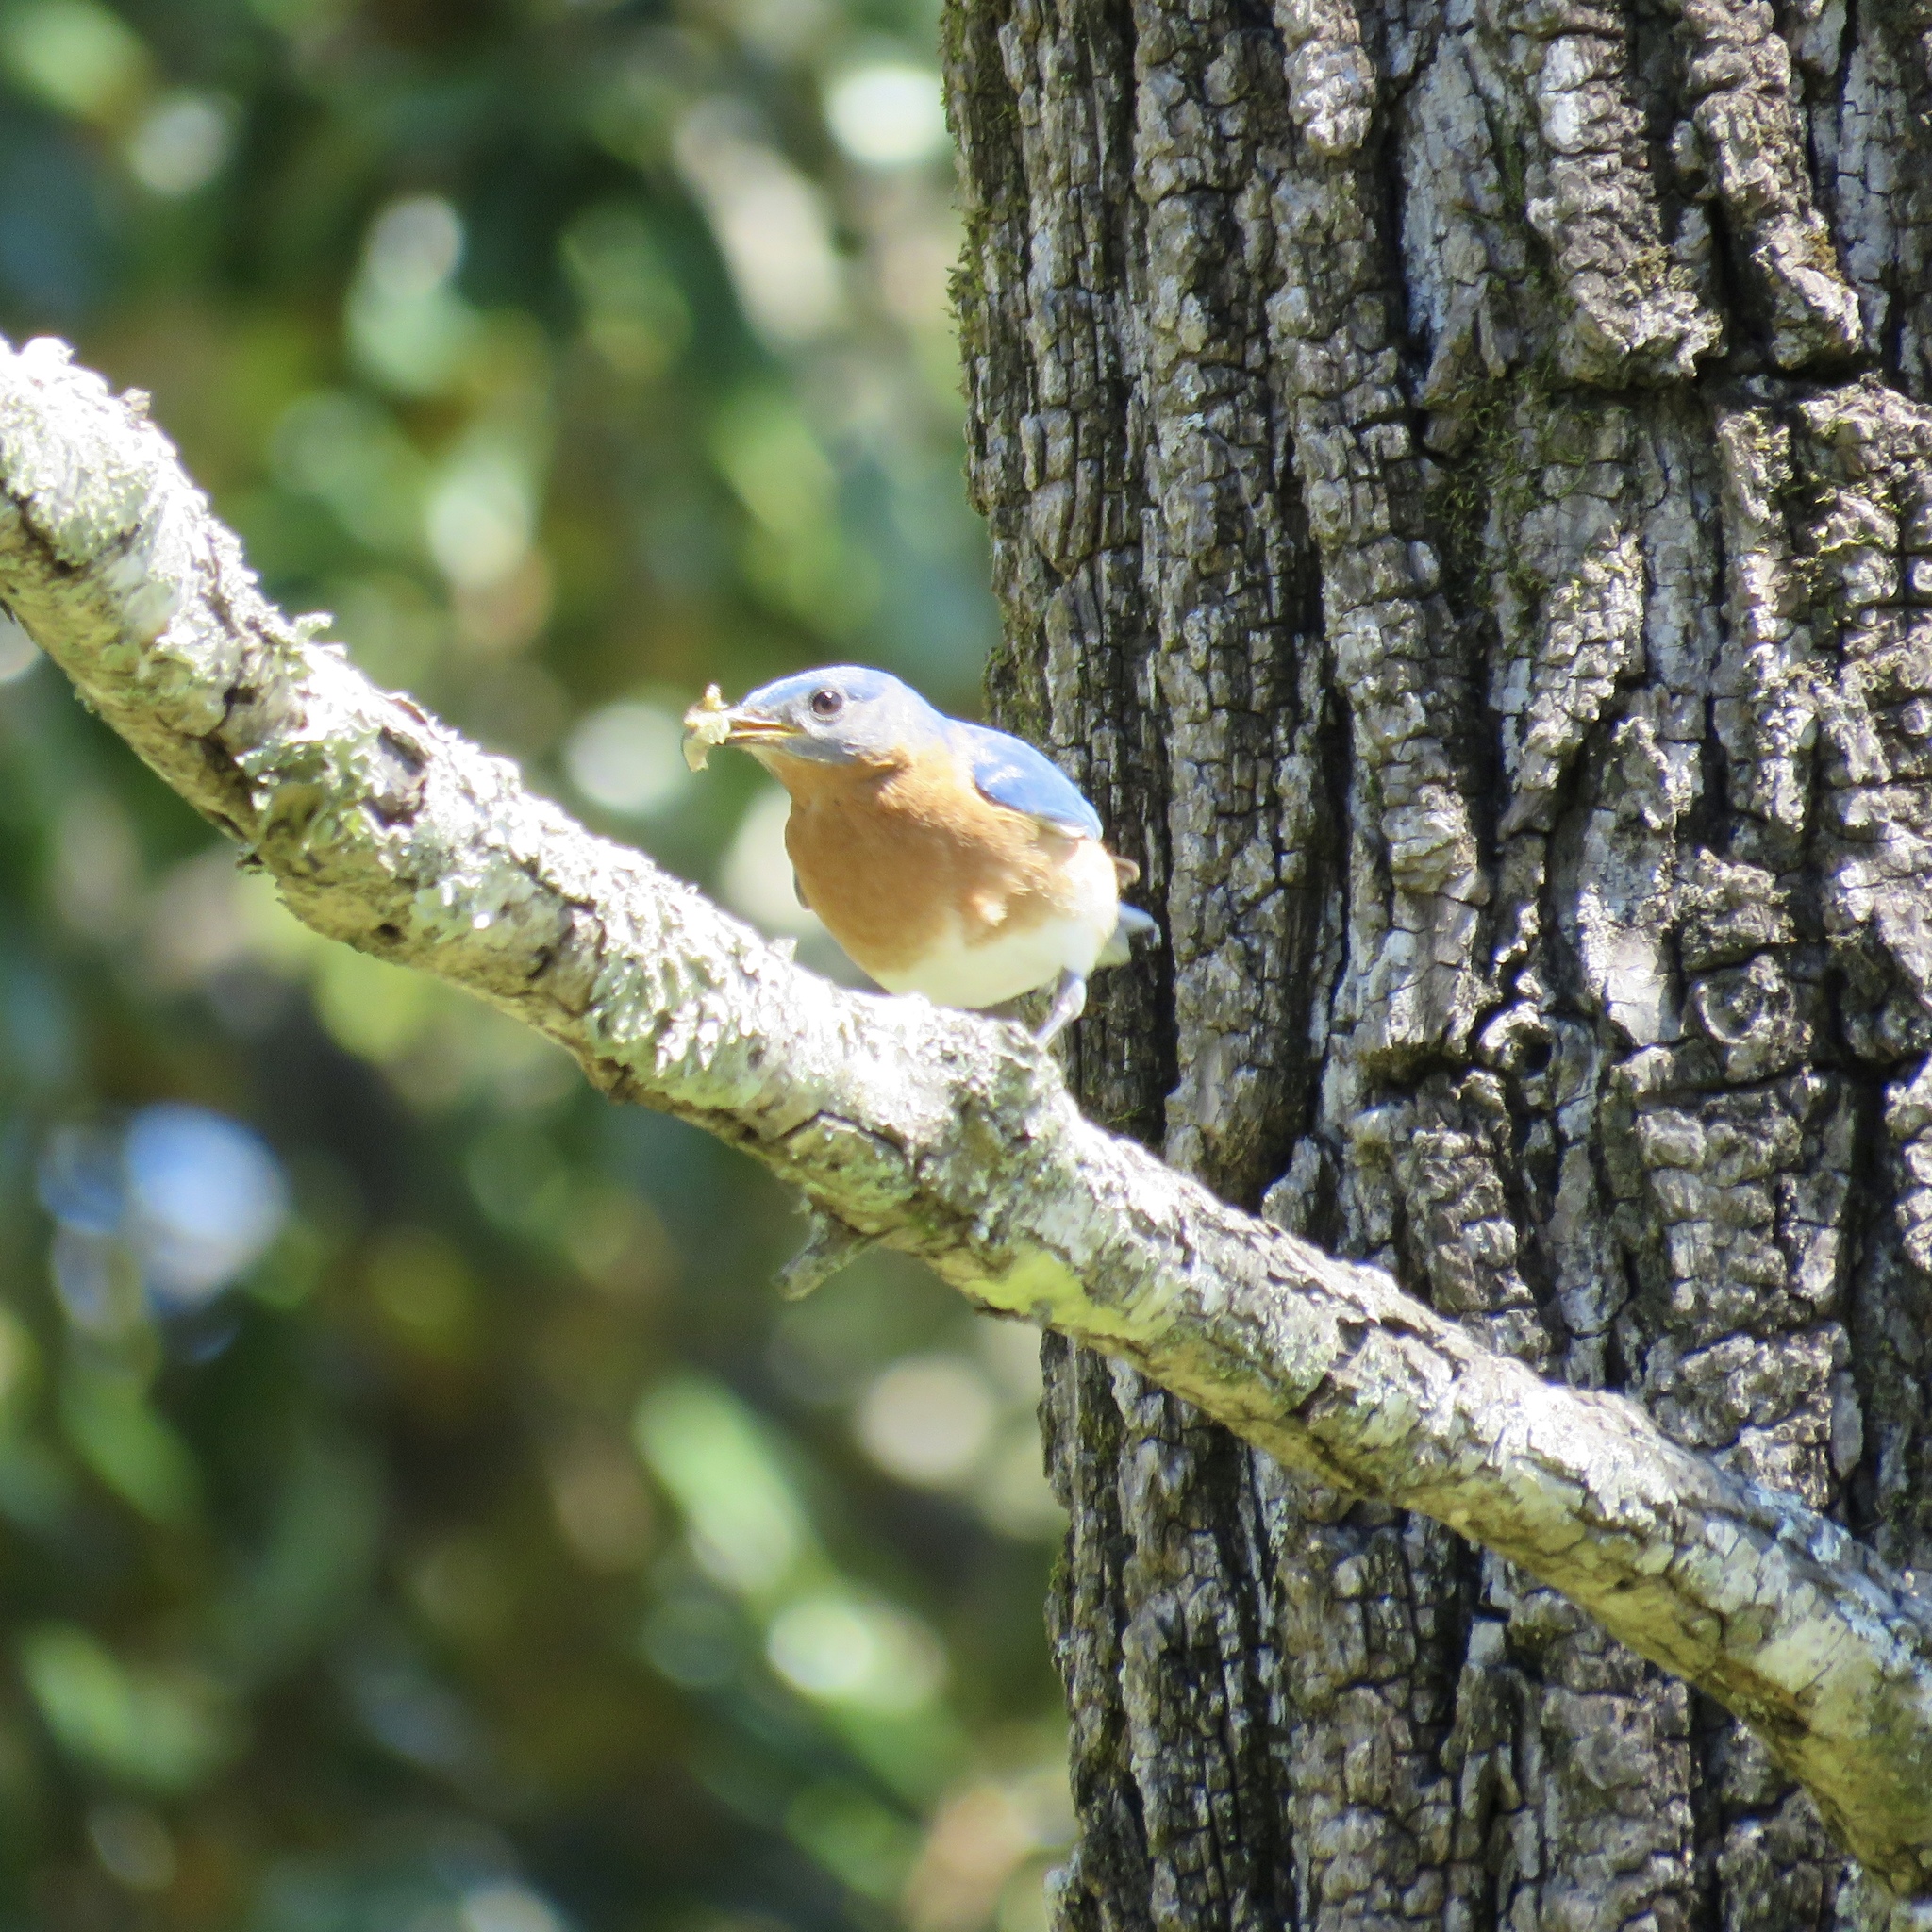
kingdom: Animalia
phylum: Chordata
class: Aves
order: Passeriformes
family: Turdidae
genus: Sialia
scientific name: Sialia sialis
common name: Eastern bluebird
